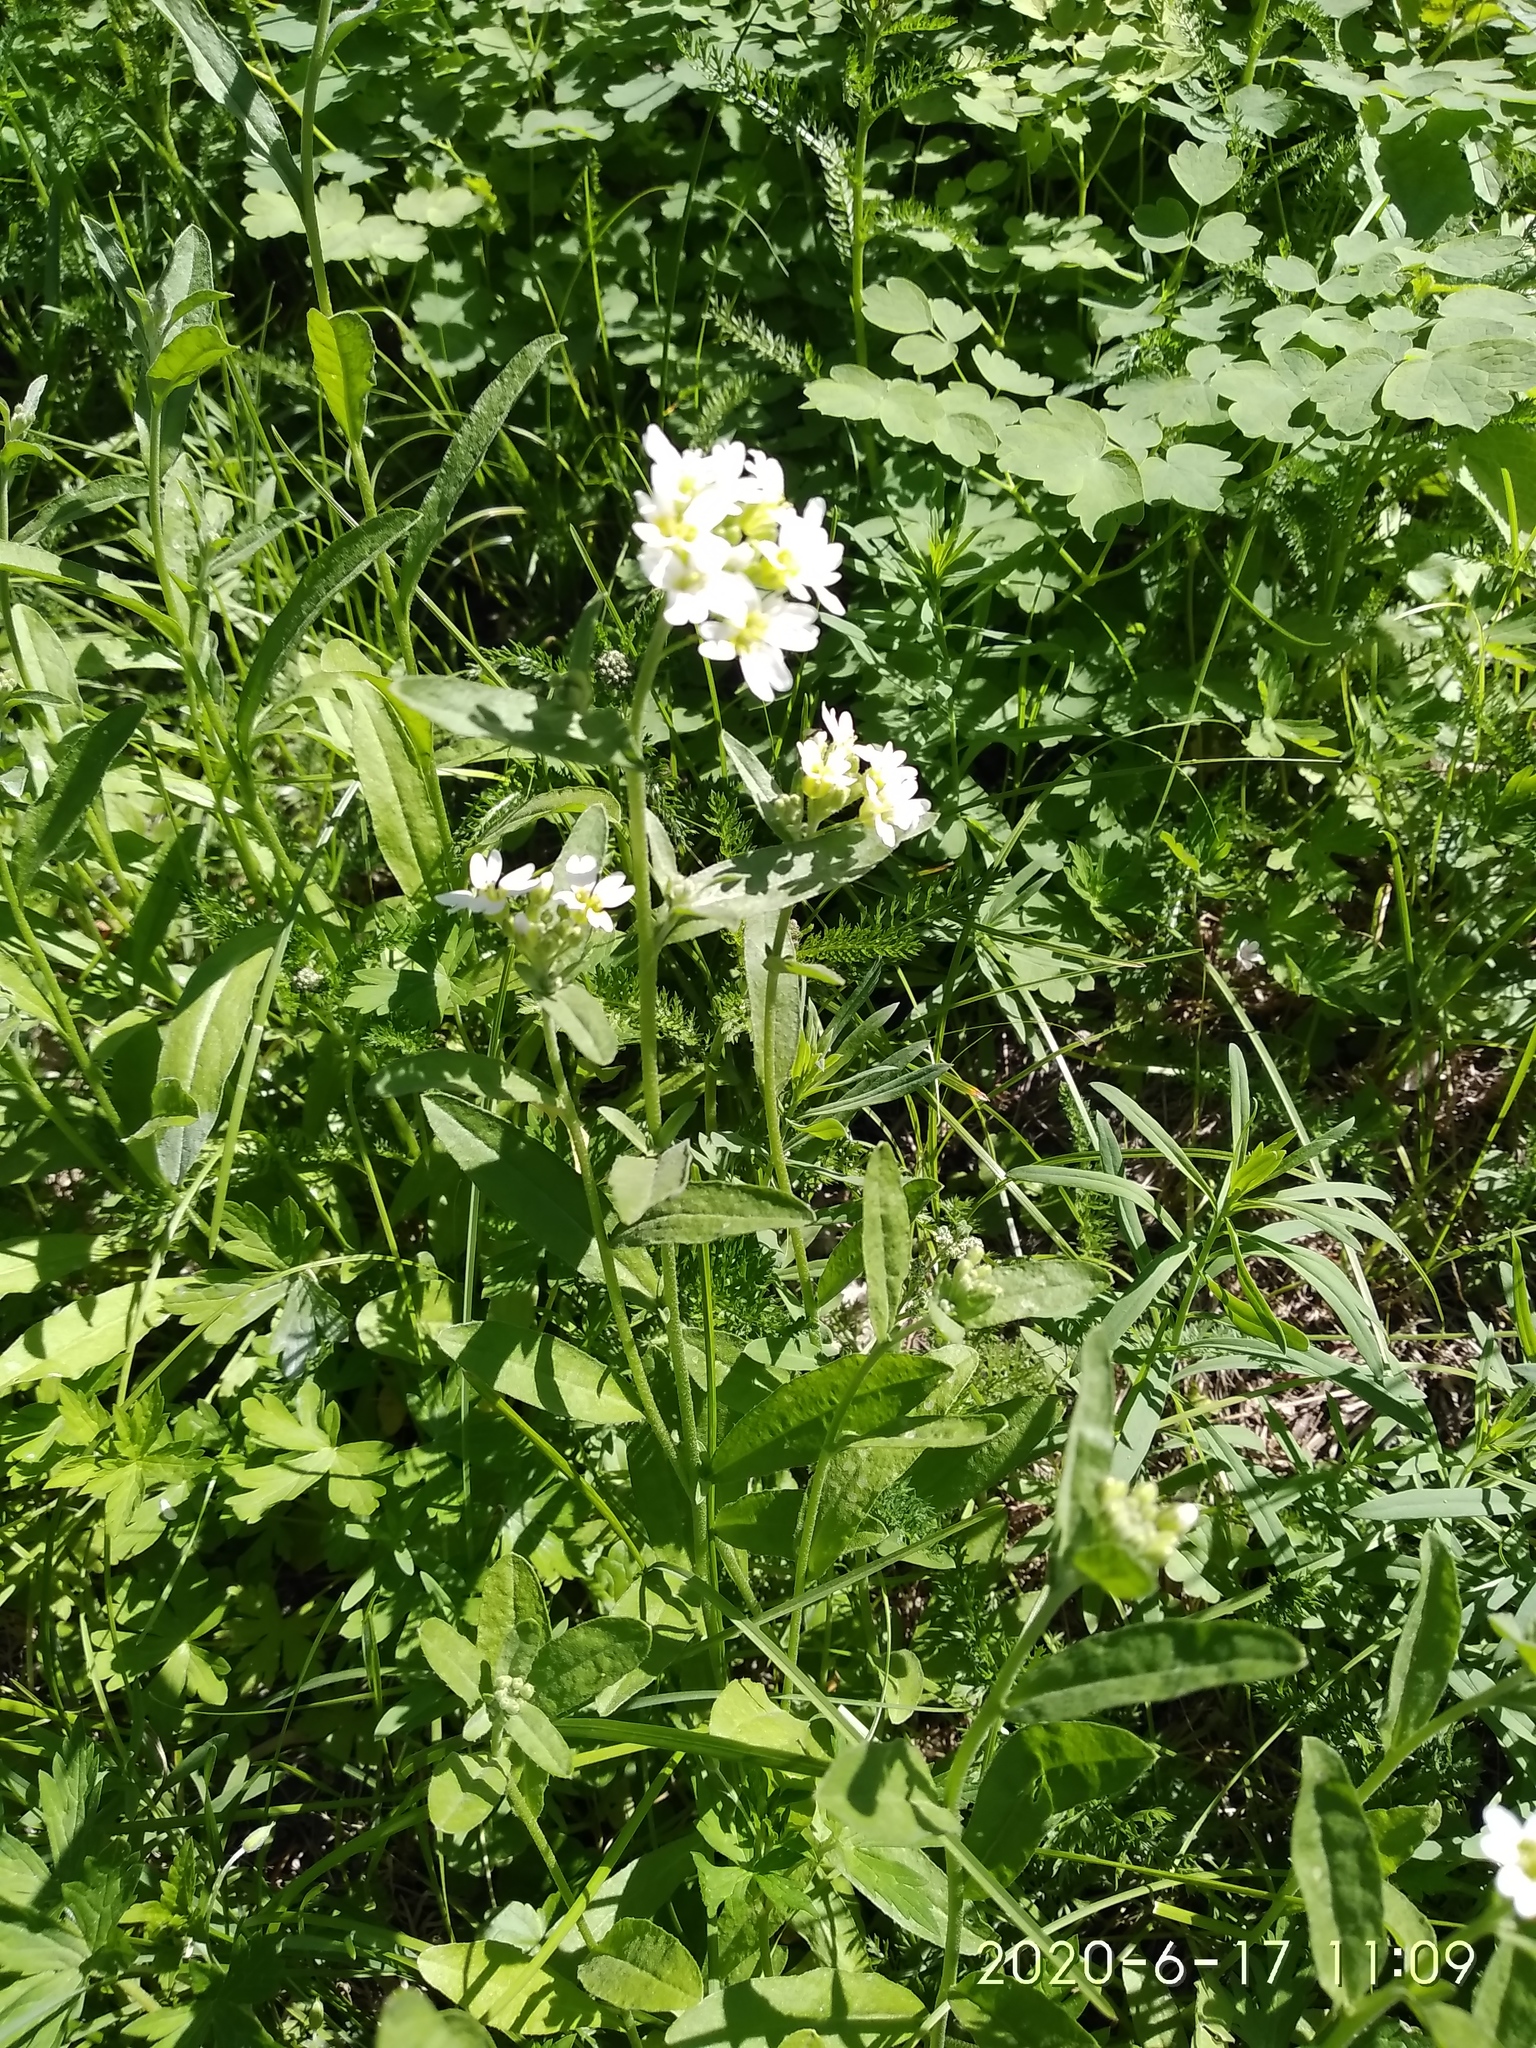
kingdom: Plantae
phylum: Tracheophyta
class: Magnoliopsida
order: Brassicales
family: Brassicaceae
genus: Berteroa
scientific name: Berteroa incana
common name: Hoary alison
